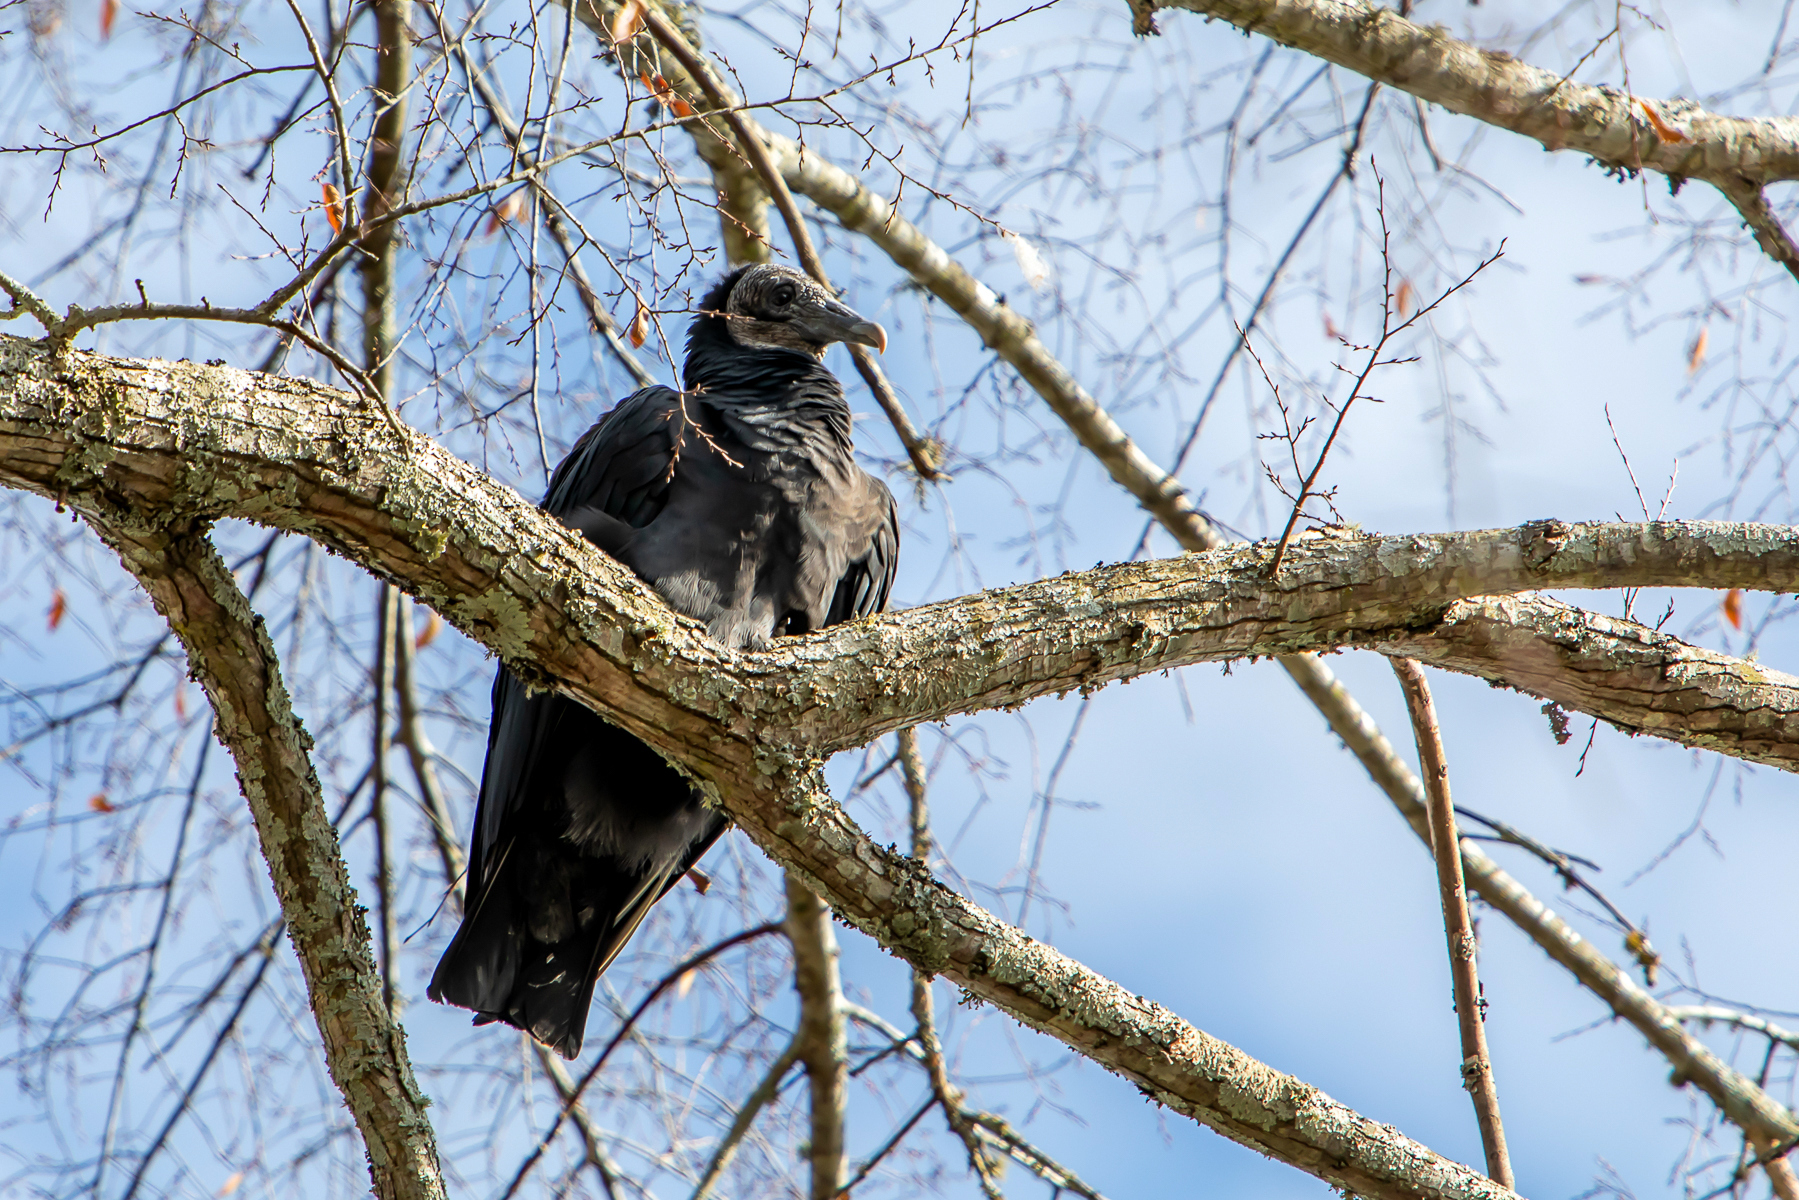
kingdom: Animalia
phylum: Chordata
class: Aves
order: Accipitriformes
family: Cathartidae
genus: Coragyps
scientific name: Coragyps atratus
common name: Black vulture
